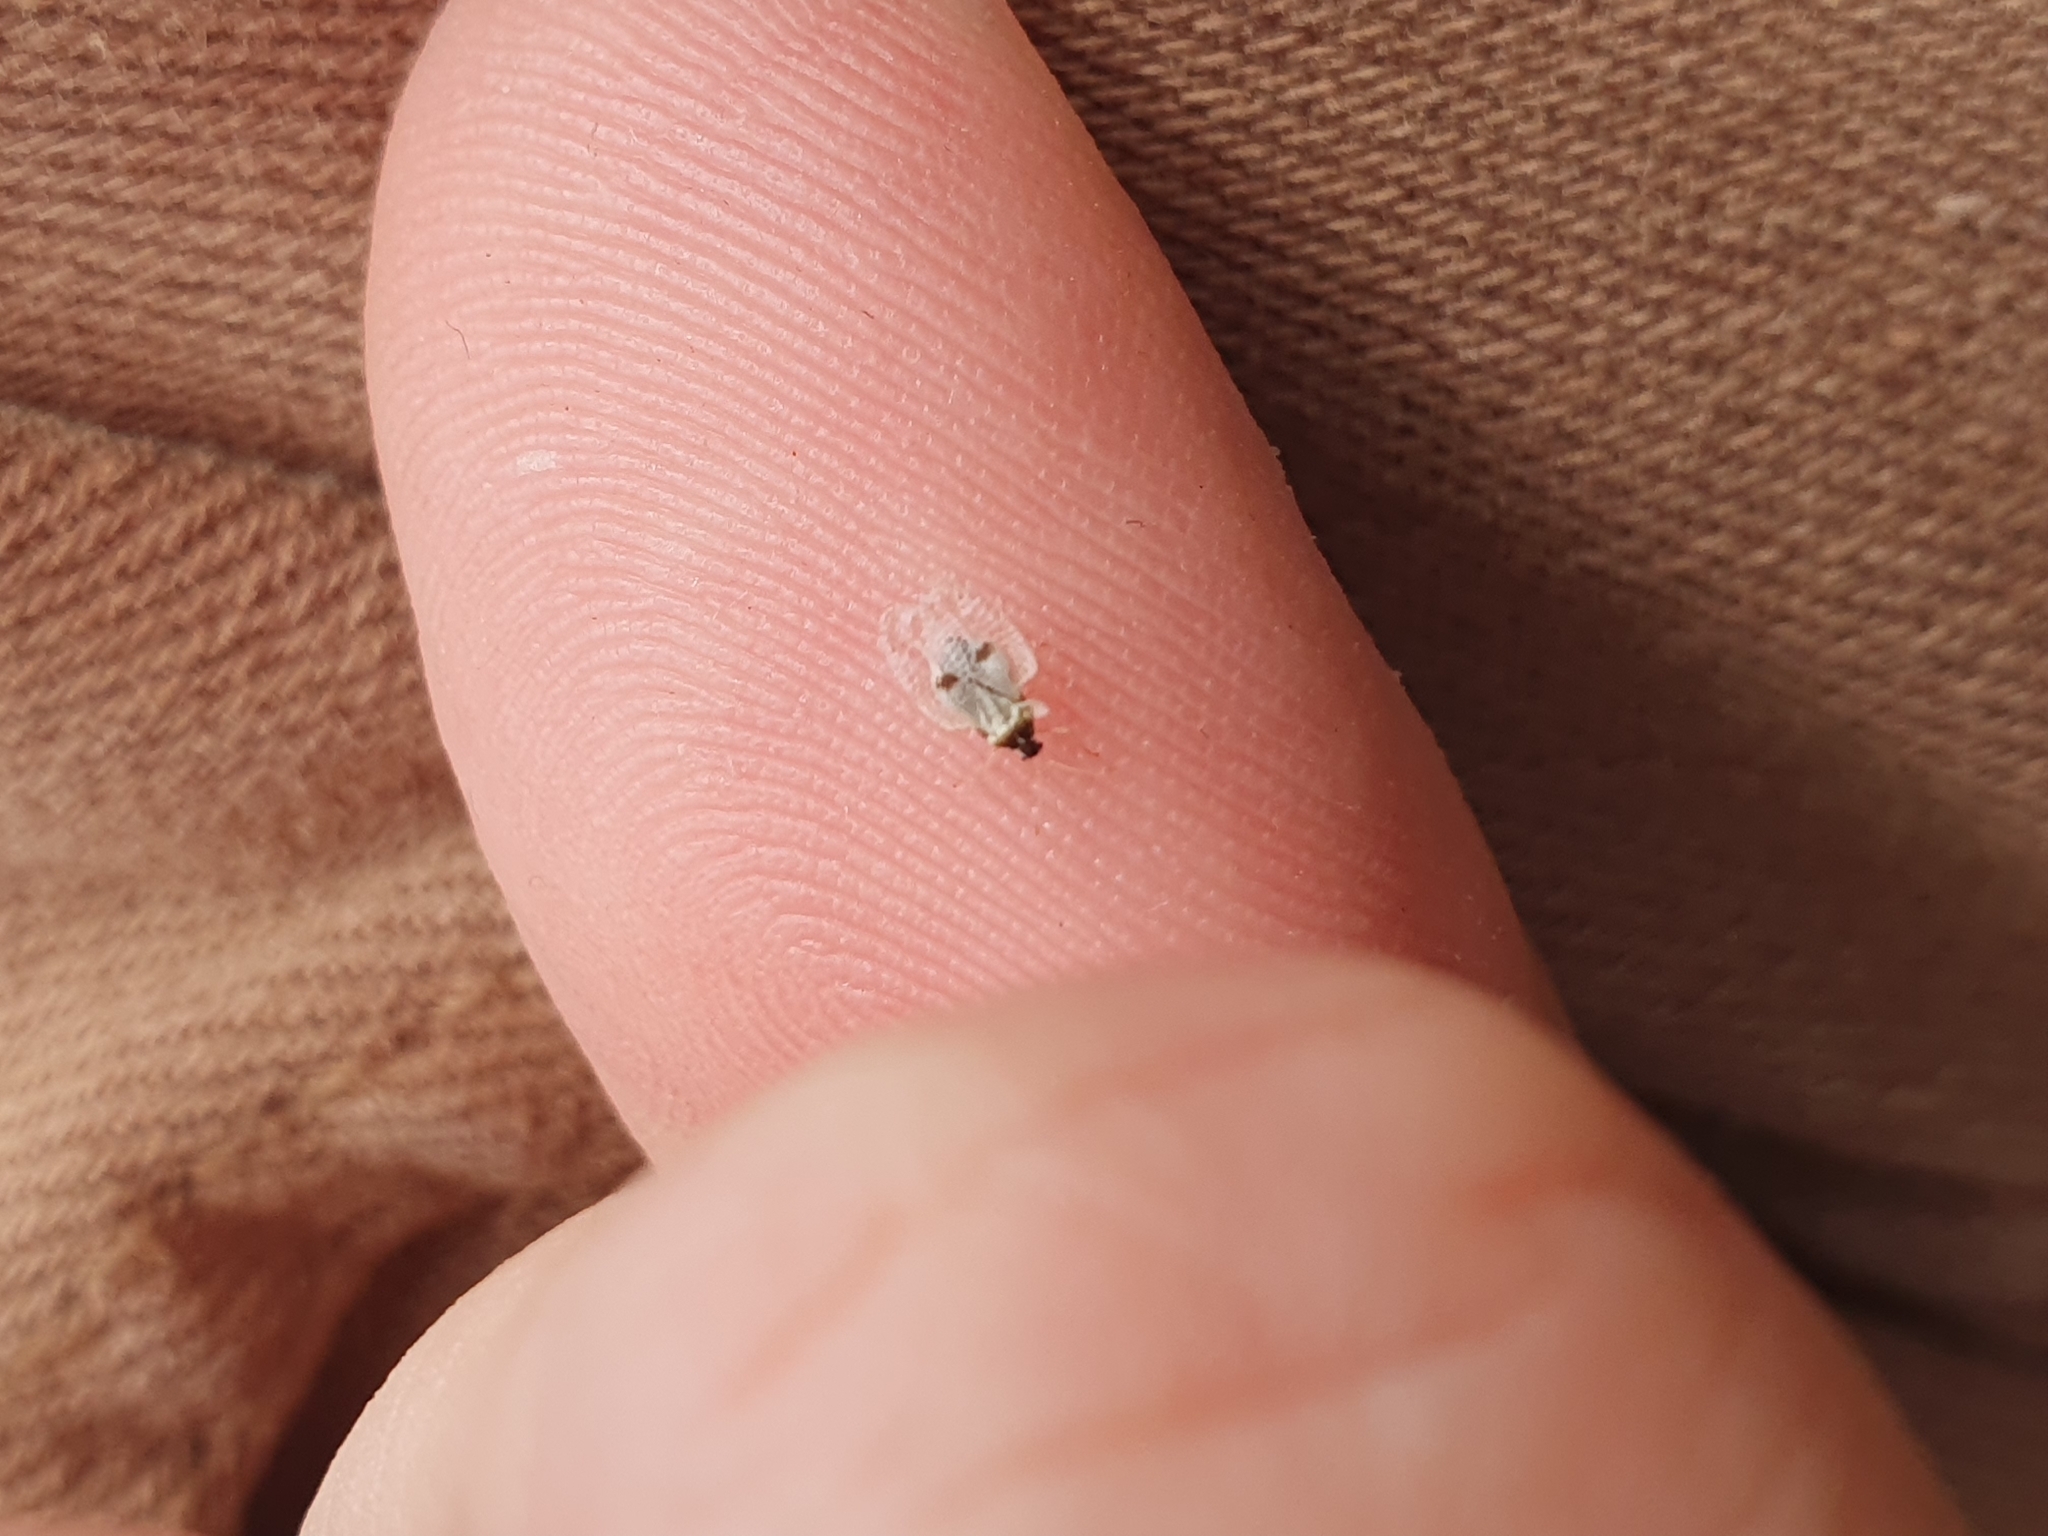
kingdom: Animalia
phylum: Arthropoda
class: Insecta
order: Hemiptera
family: Tingidae
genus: Corythucha
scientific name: Corythucha ciliata
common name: Sycamore lace bug
